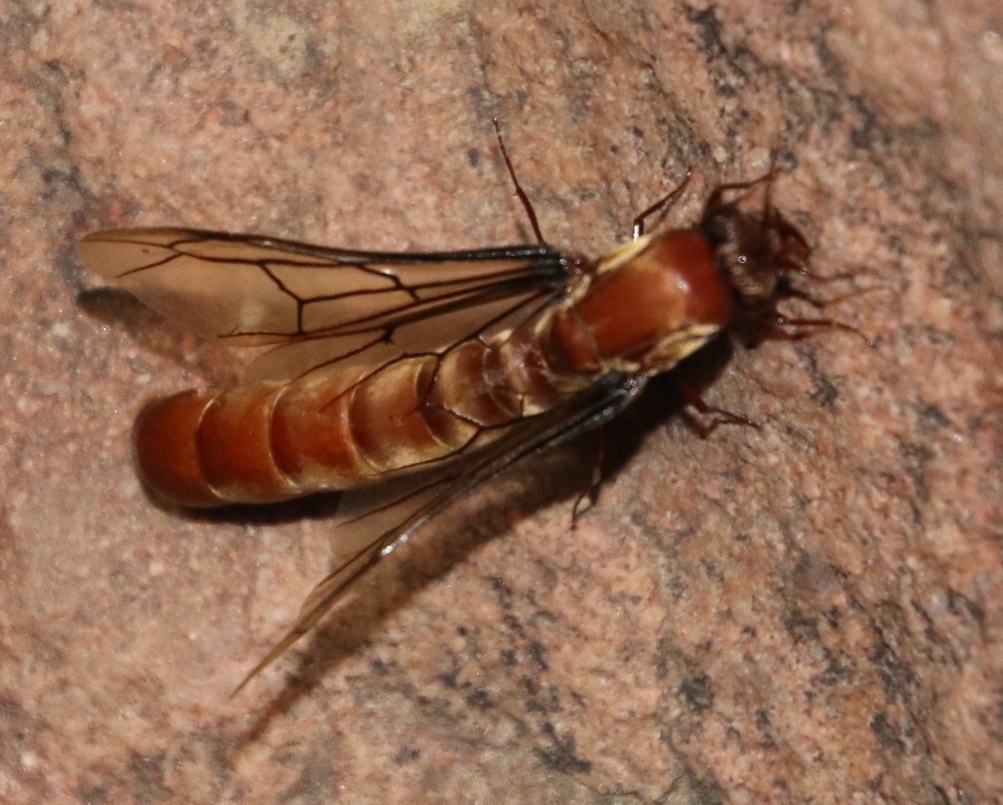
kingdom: Animalia
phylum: Arthropoda
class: Insecta
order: Hymenoptera
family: Formicidae
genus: Dorylus
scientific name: Dorylus helvolus
